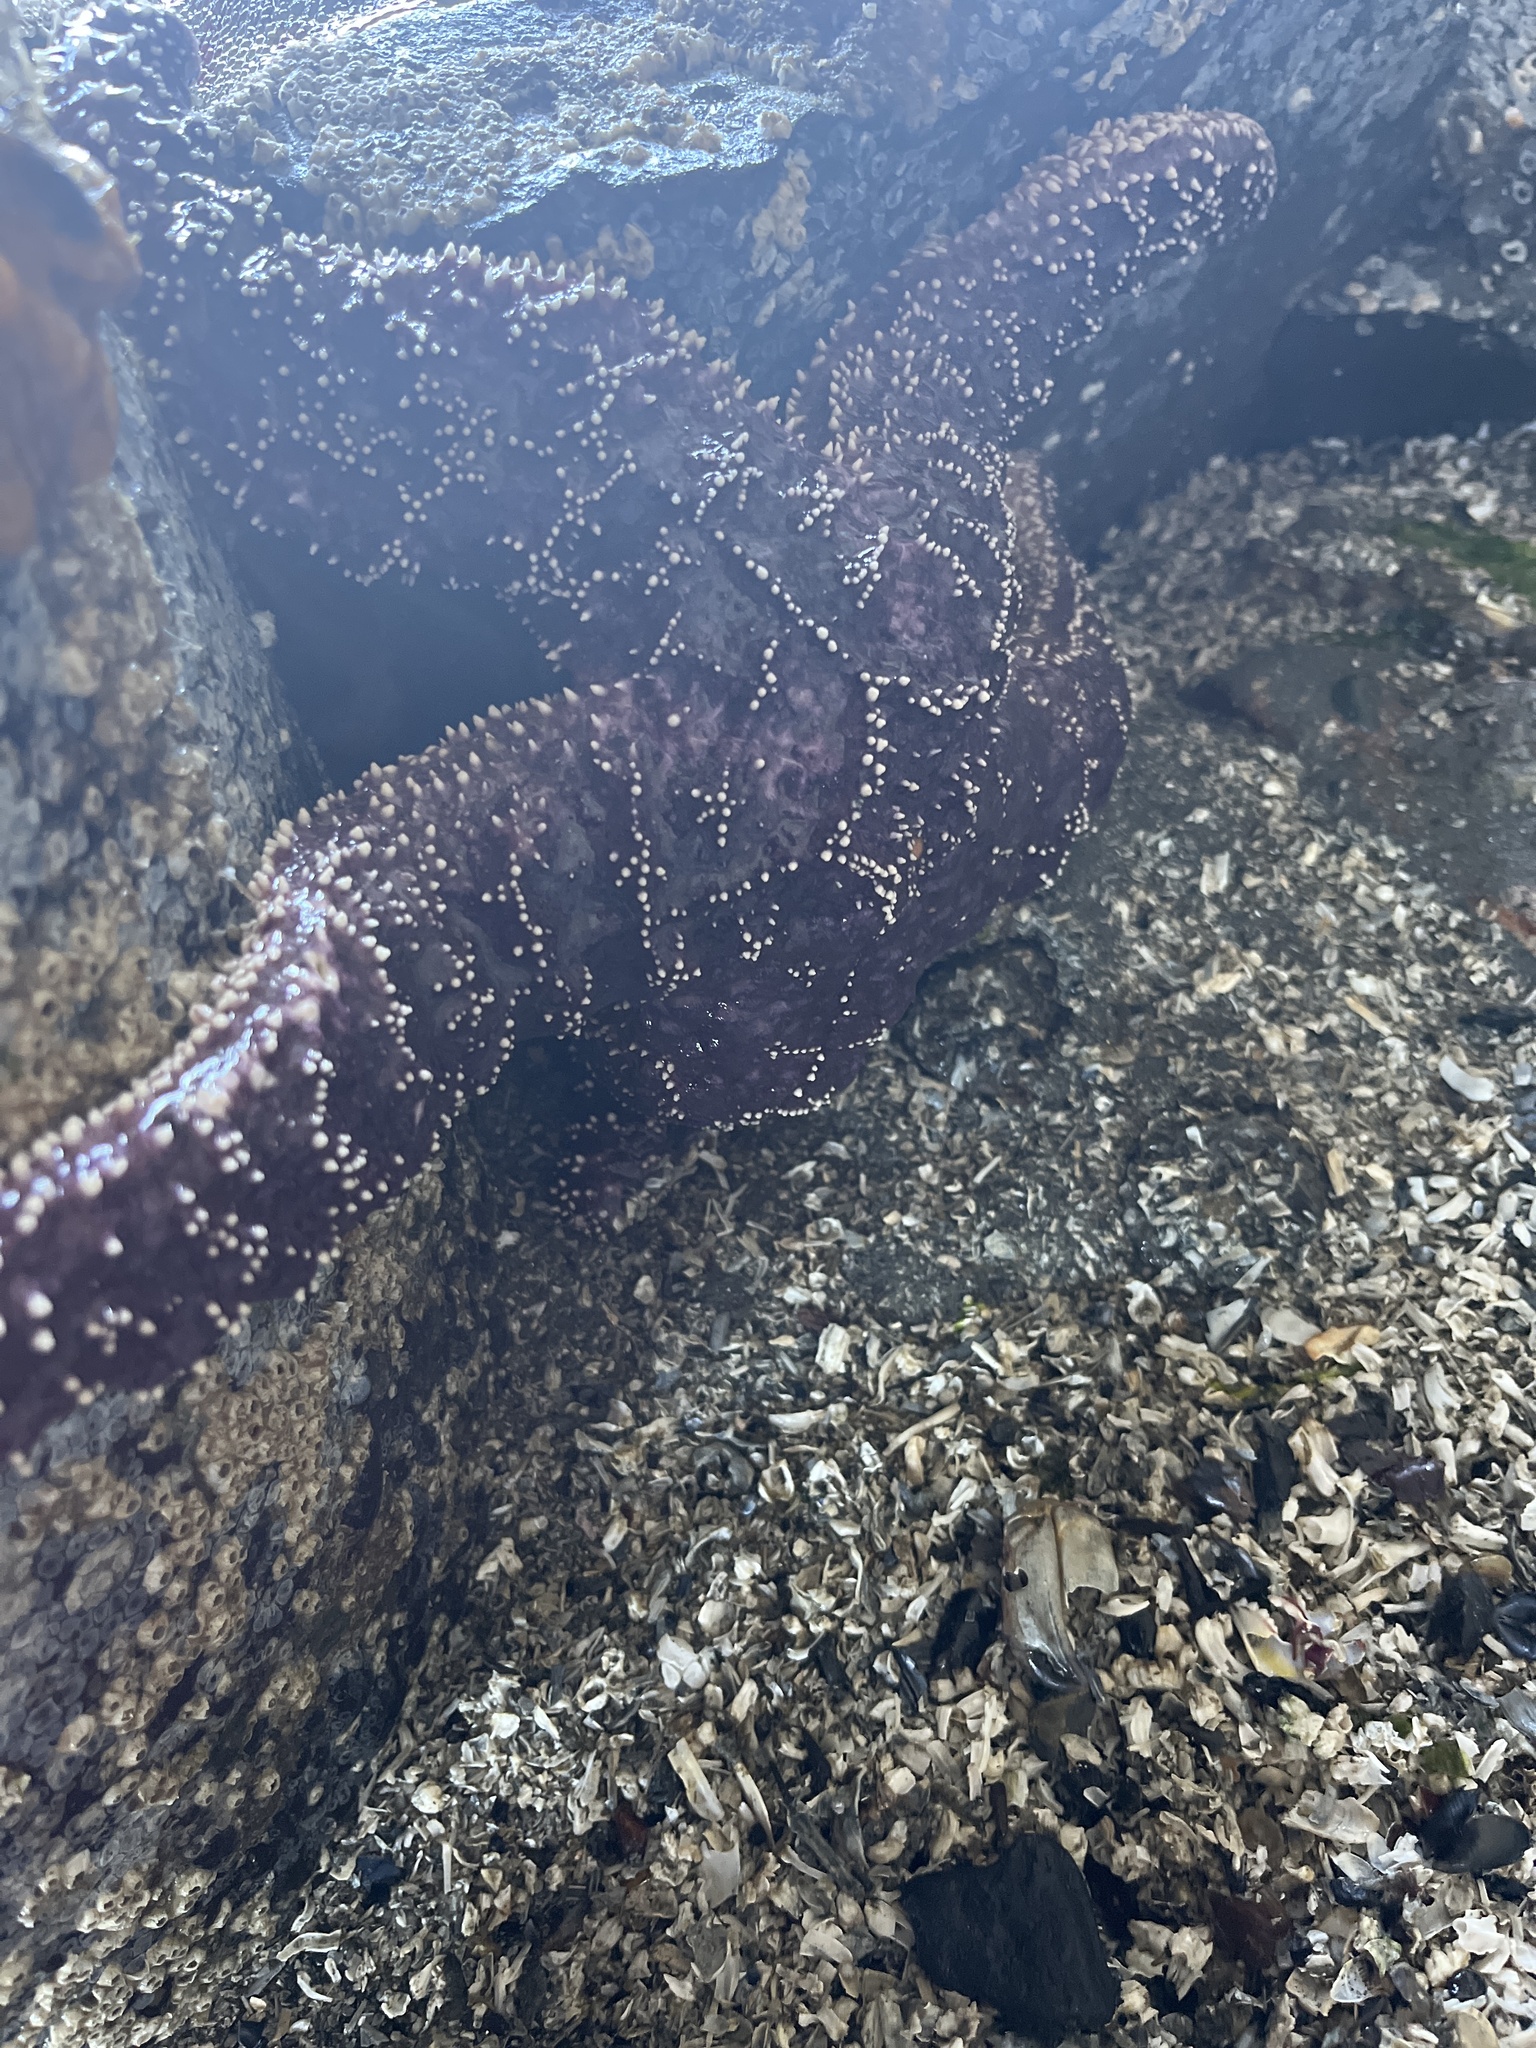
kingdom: Animalia
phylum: Echinodermata
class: Asteroidea
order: Forcipulatida
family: Asteriidae
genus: Pisaster
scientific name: Pisaster ochraceus
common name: Ochre stars
